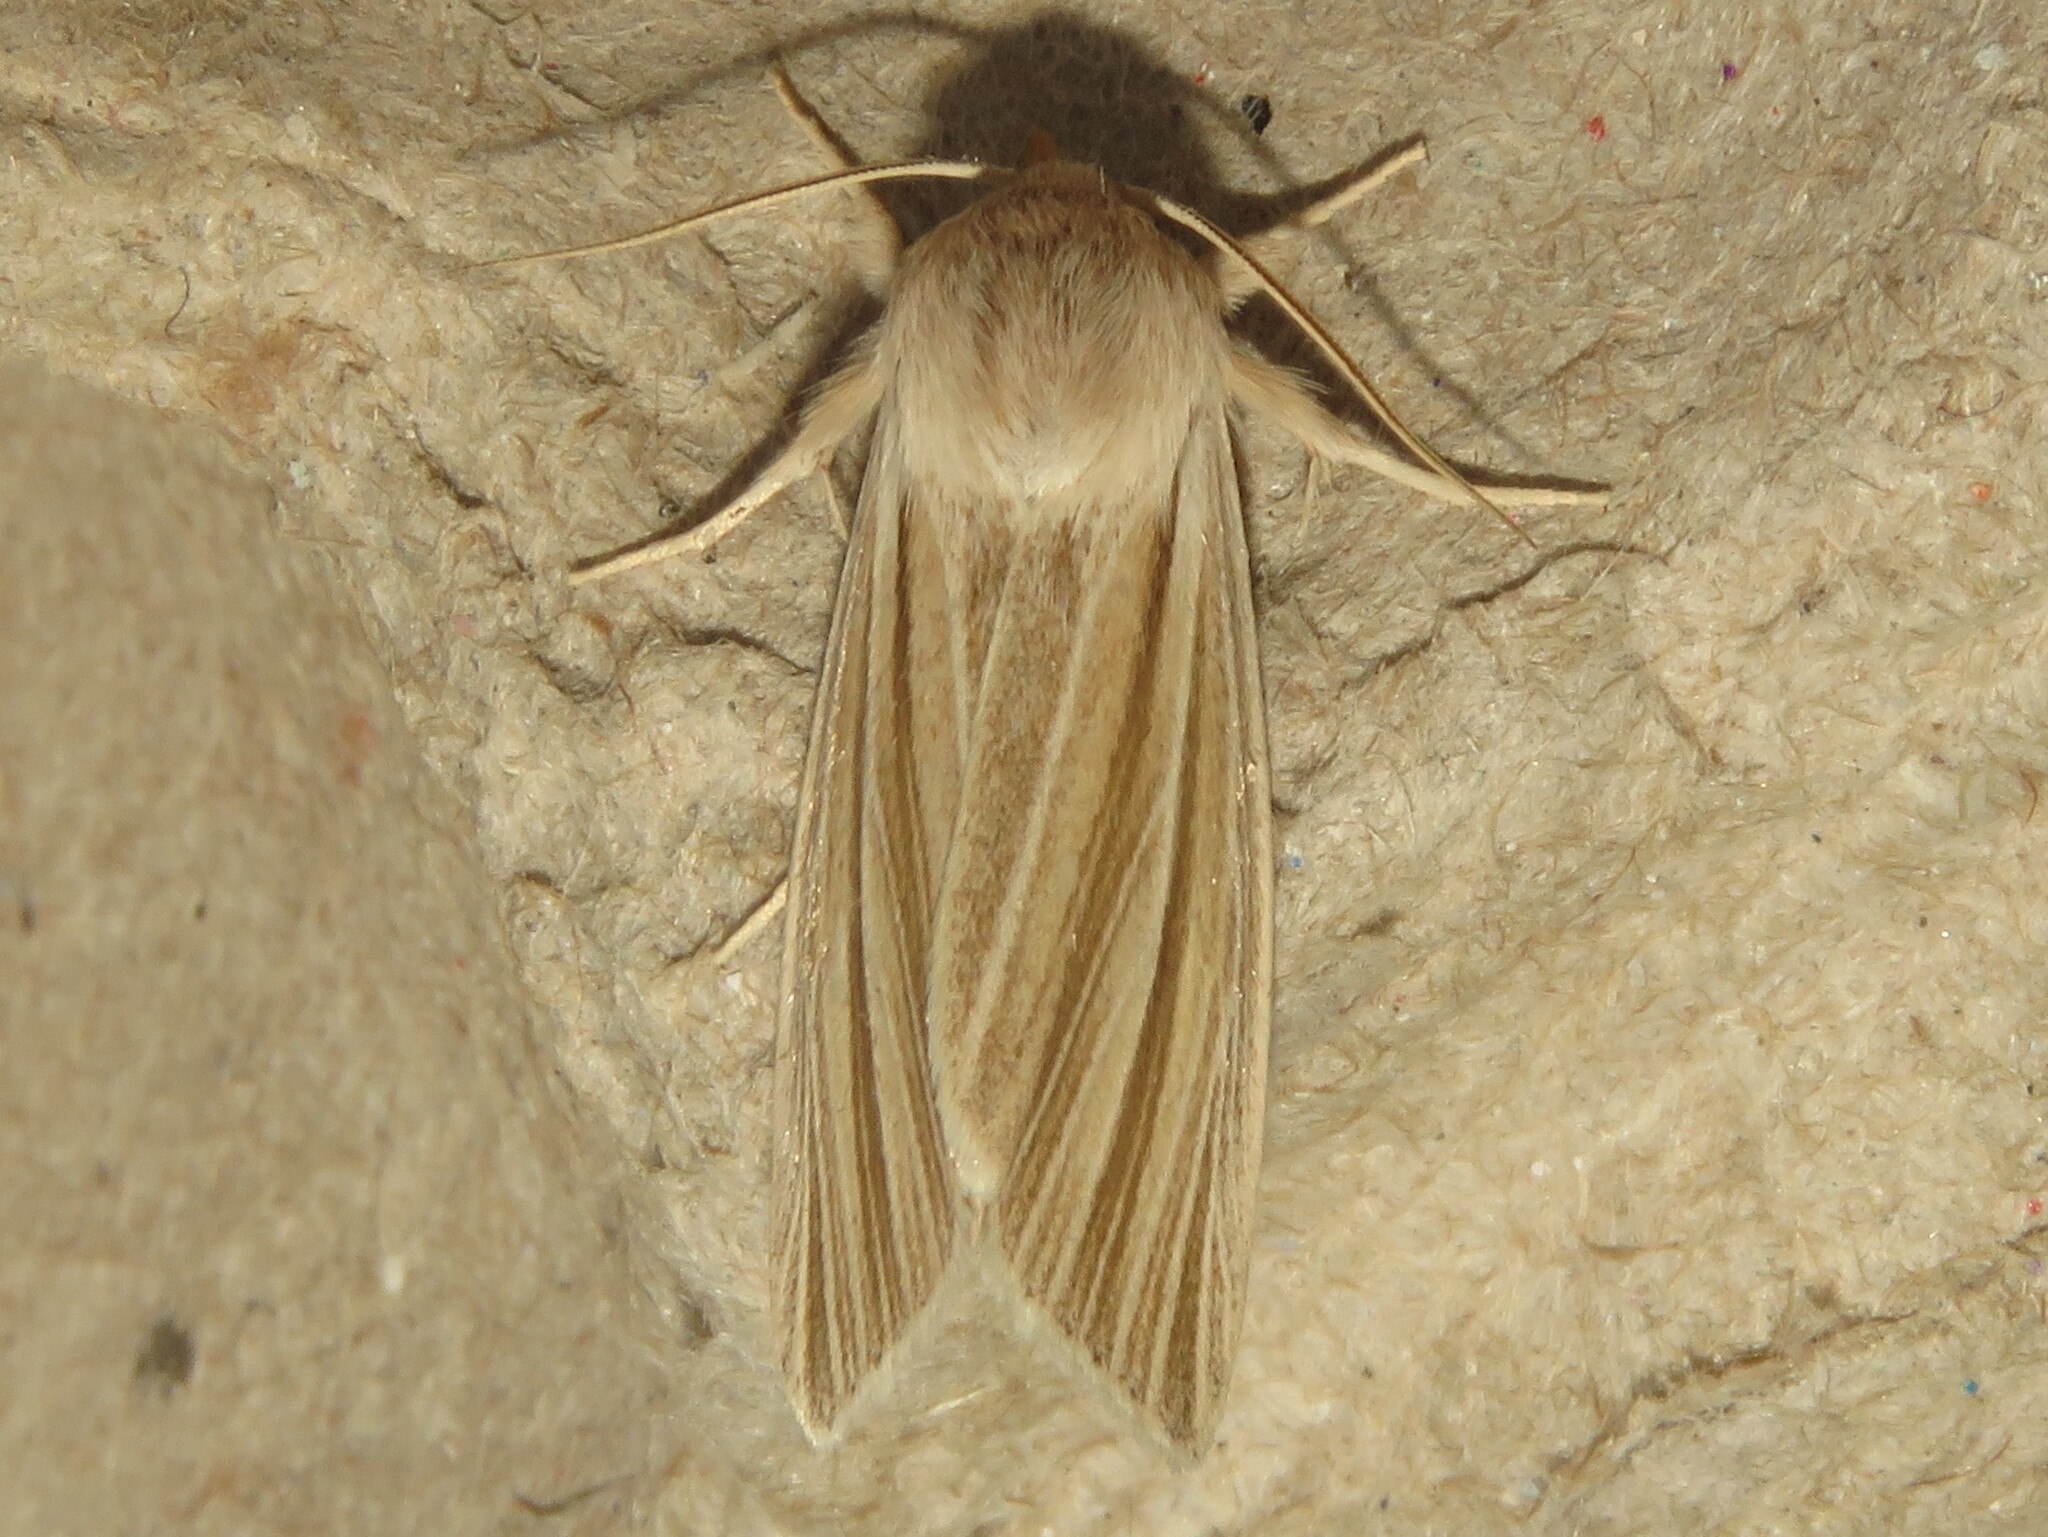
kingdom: Animalia
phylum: Arthropoda
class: Insecta
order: Lepidoptera
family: Noctuidae
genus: Acronicta
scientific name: Acronicta insularis
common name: Henry's marsh moth
